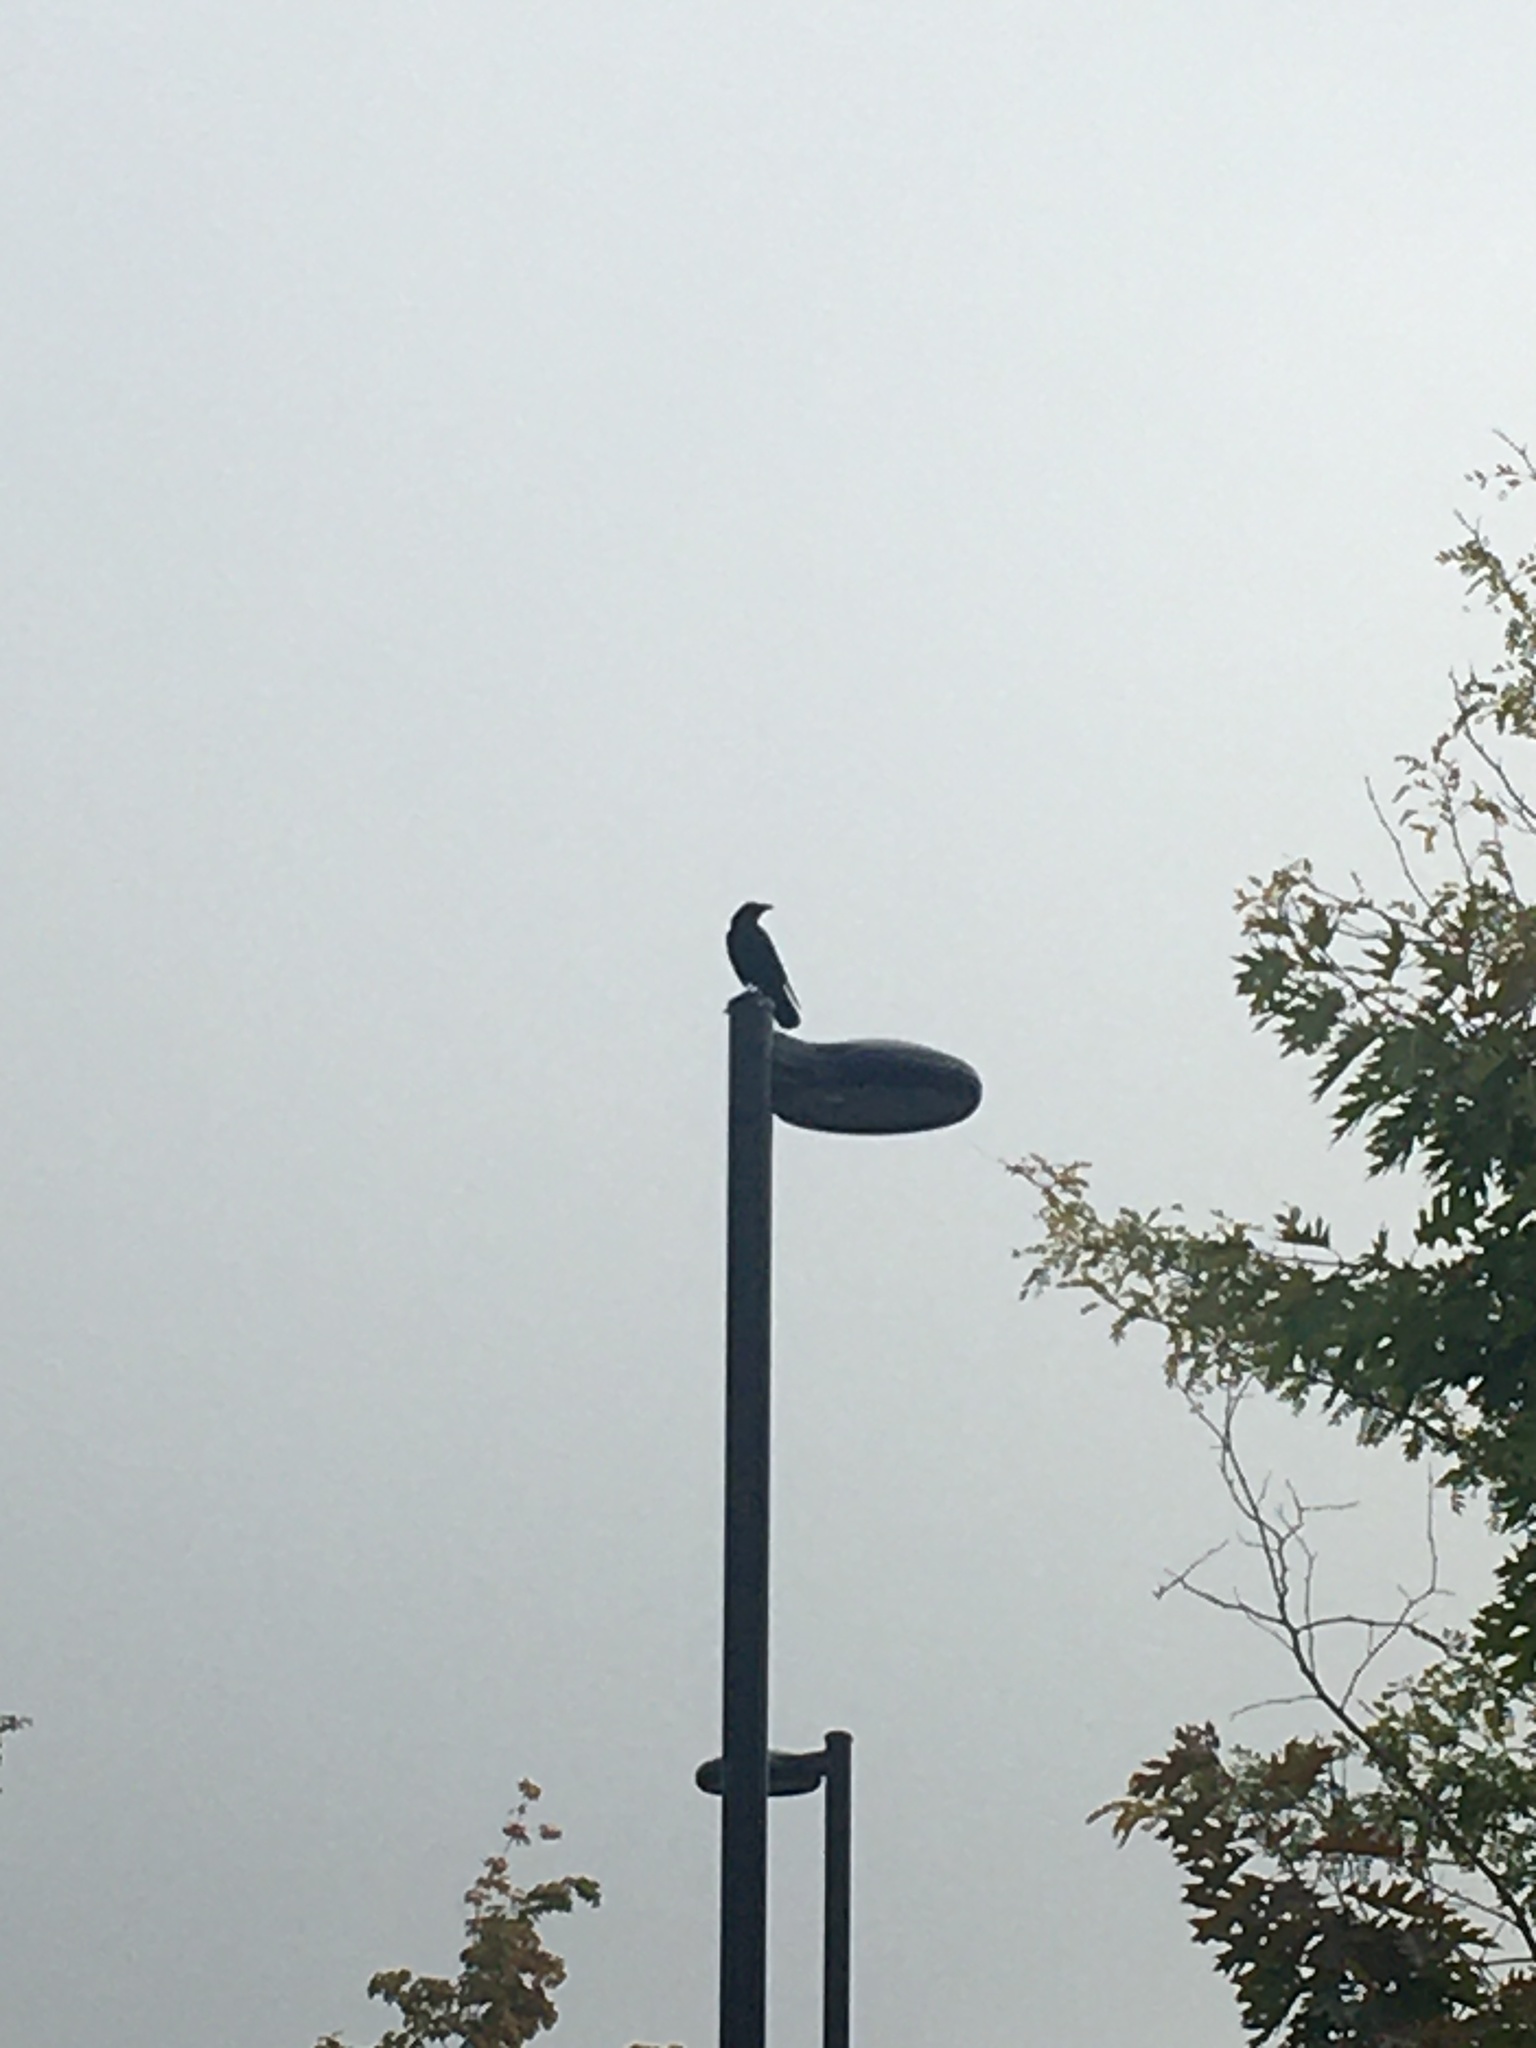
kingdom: Animalia
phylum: Chordata
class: Aves
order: Passeriformes
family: Corvidae
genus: Corvus
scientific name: Corvus brachyrhynchos
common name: American crow
